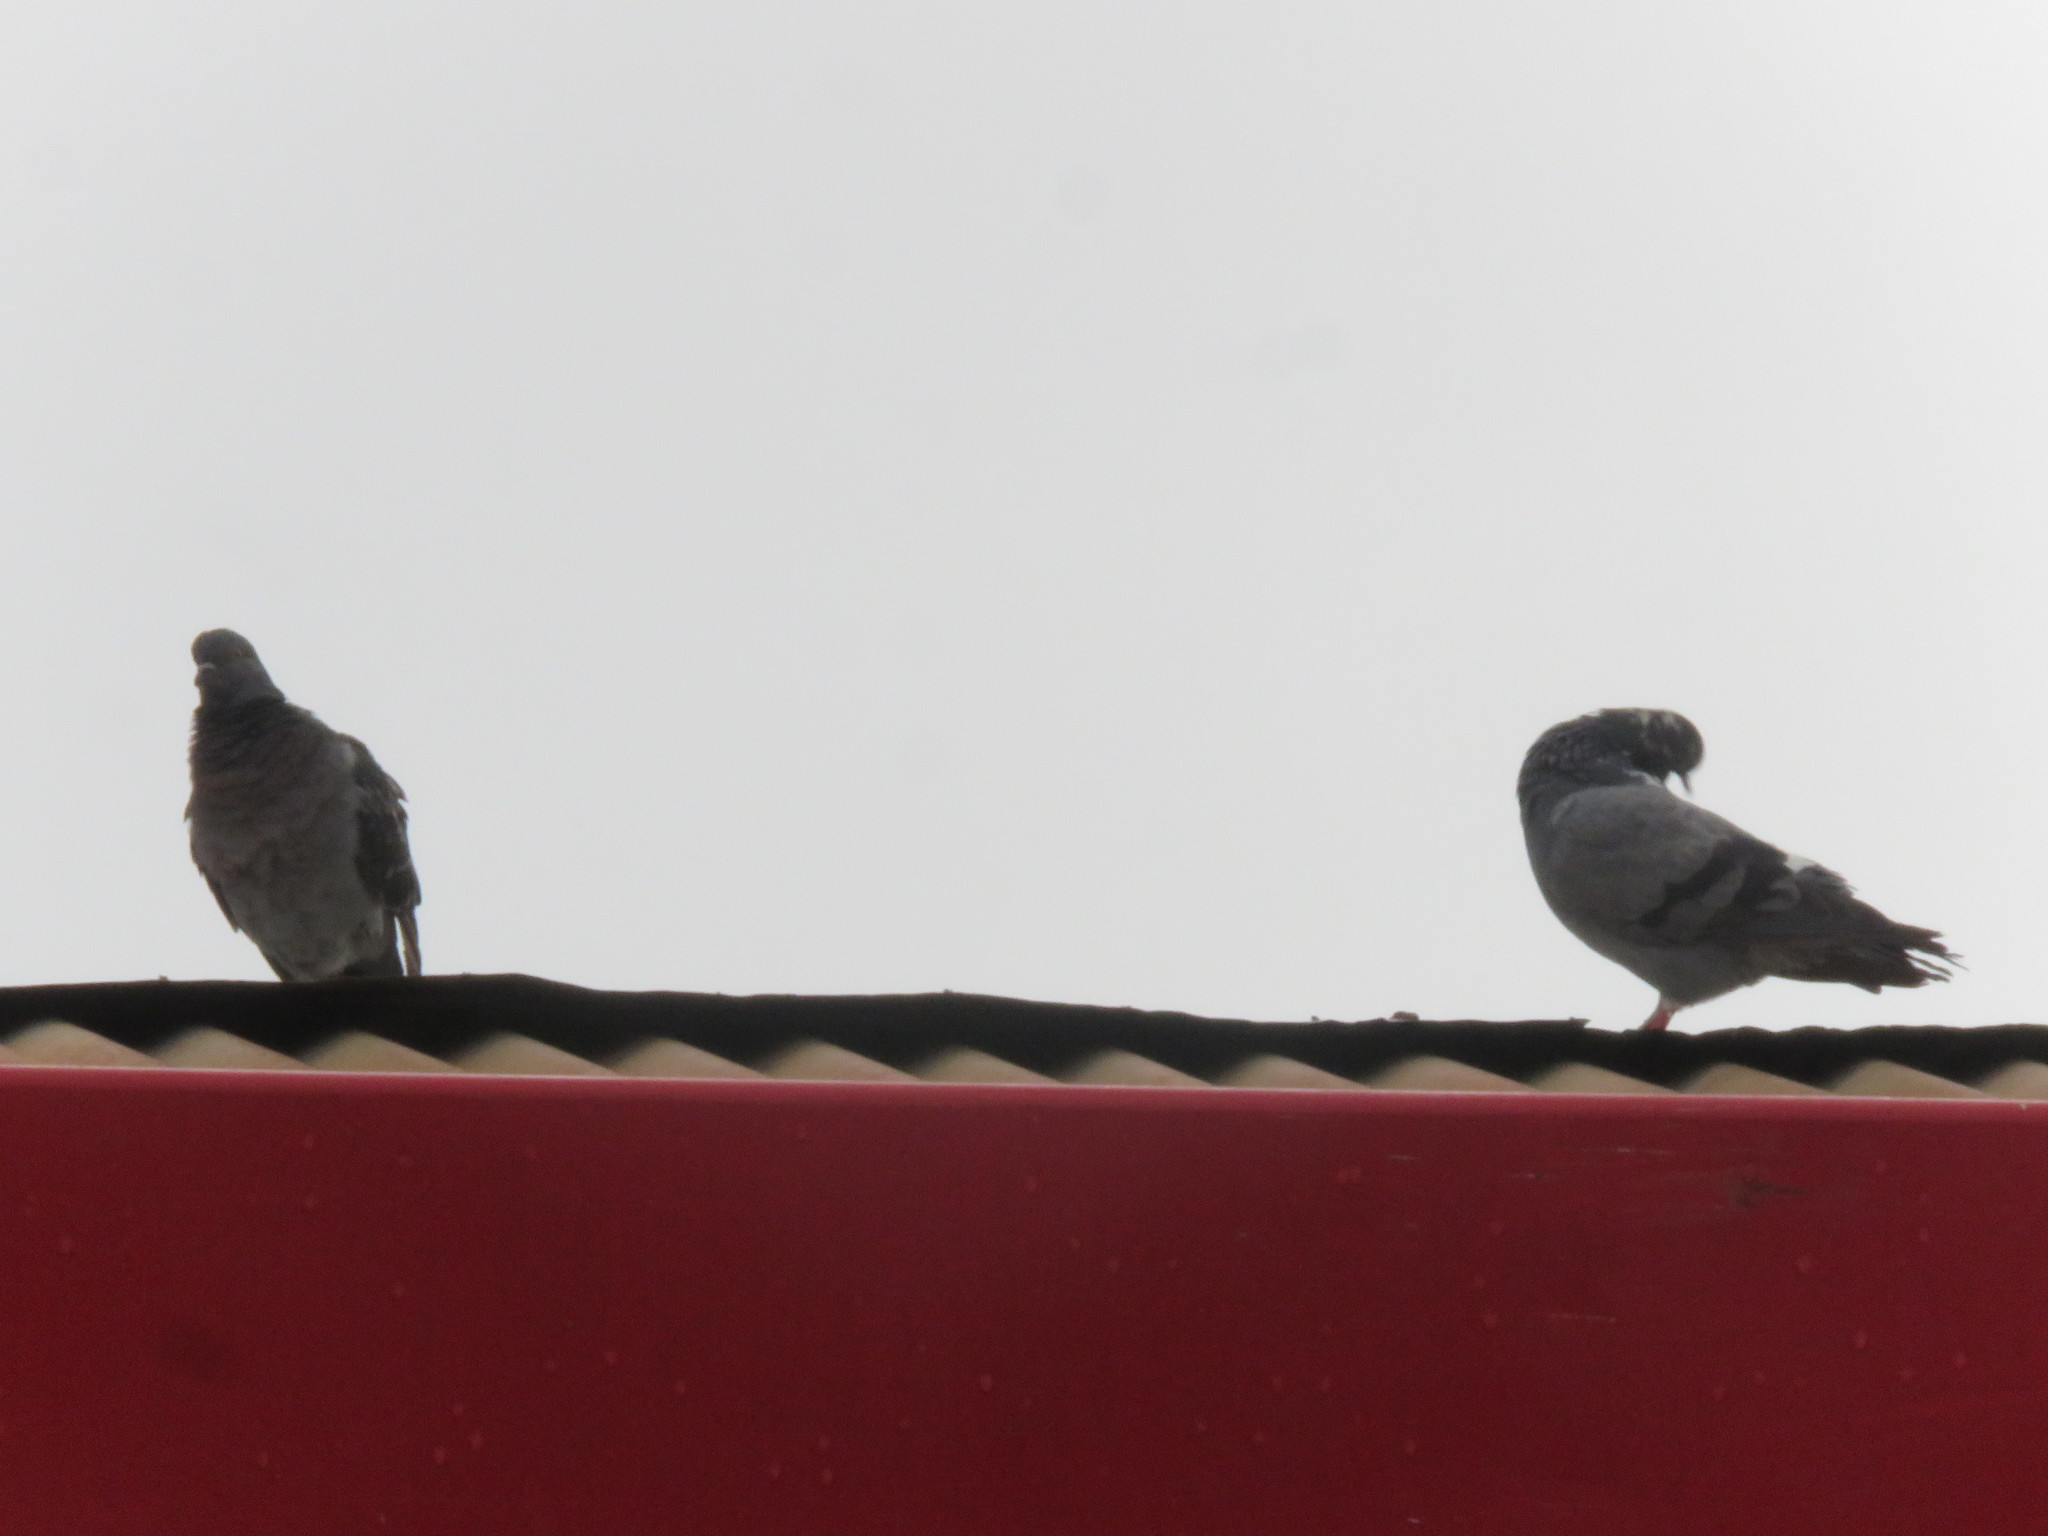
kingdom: Animalia
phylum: Chordata
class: Aves
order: Columbiformes
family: Columbidae
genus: Columba
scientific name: Columba livia
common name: Rock pigeon
